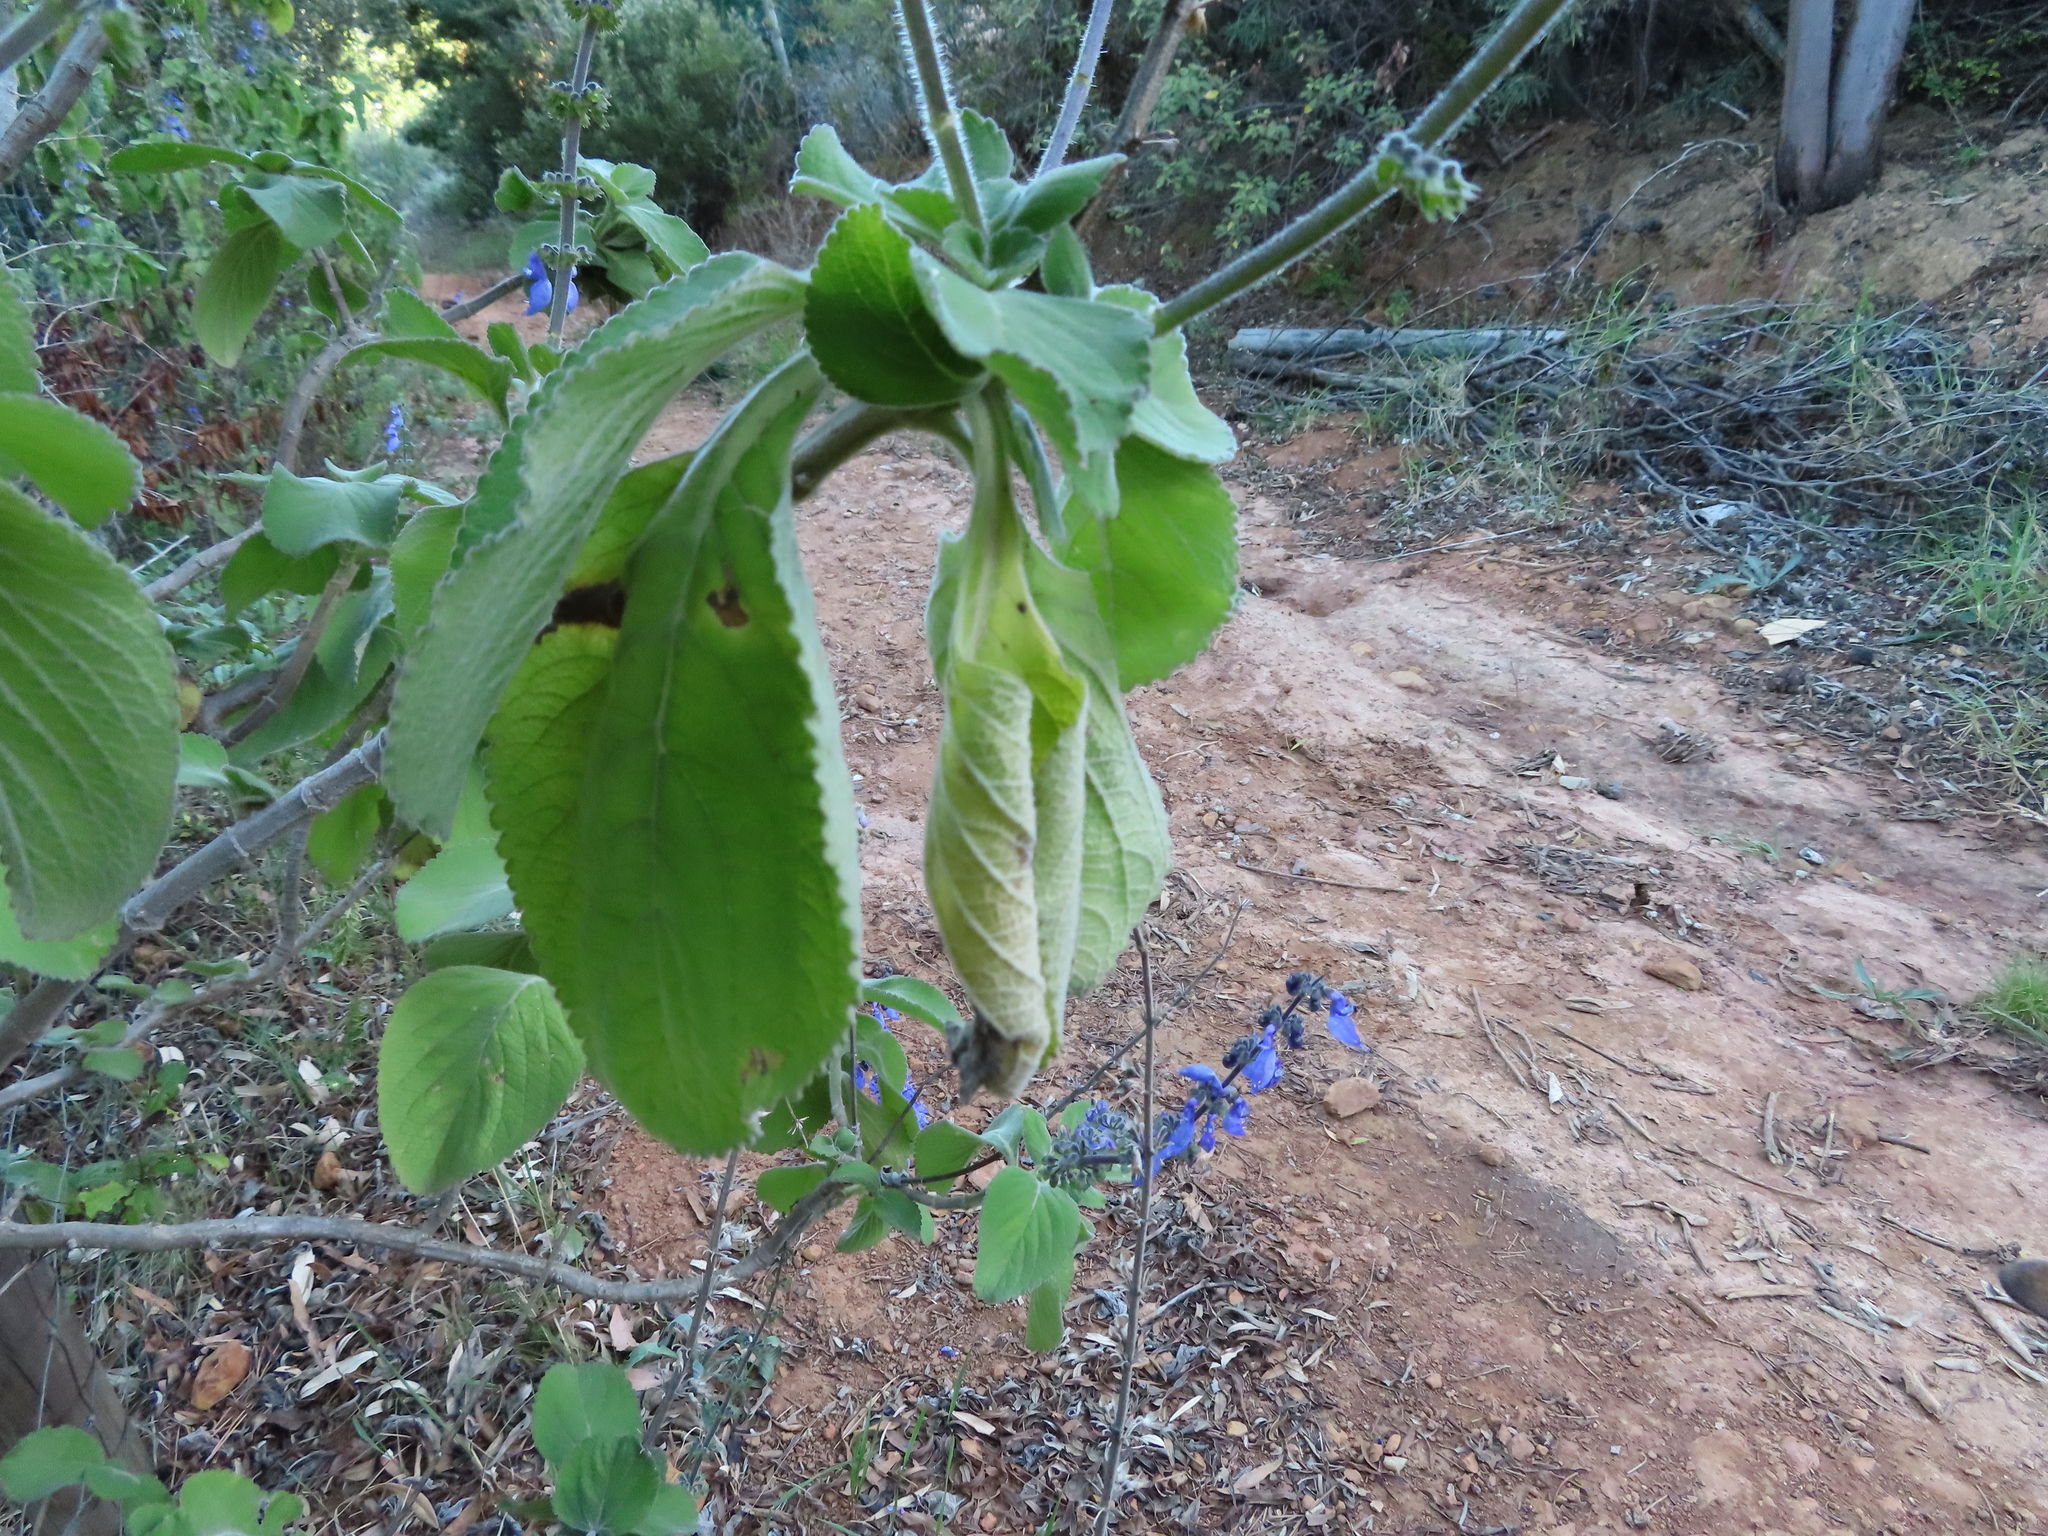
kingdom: Plantae
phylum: Tracheophyta
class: Magnoliopsida
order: Lamiales
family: Lamiaceae
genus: Coleus
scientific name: Coleus barbatus
